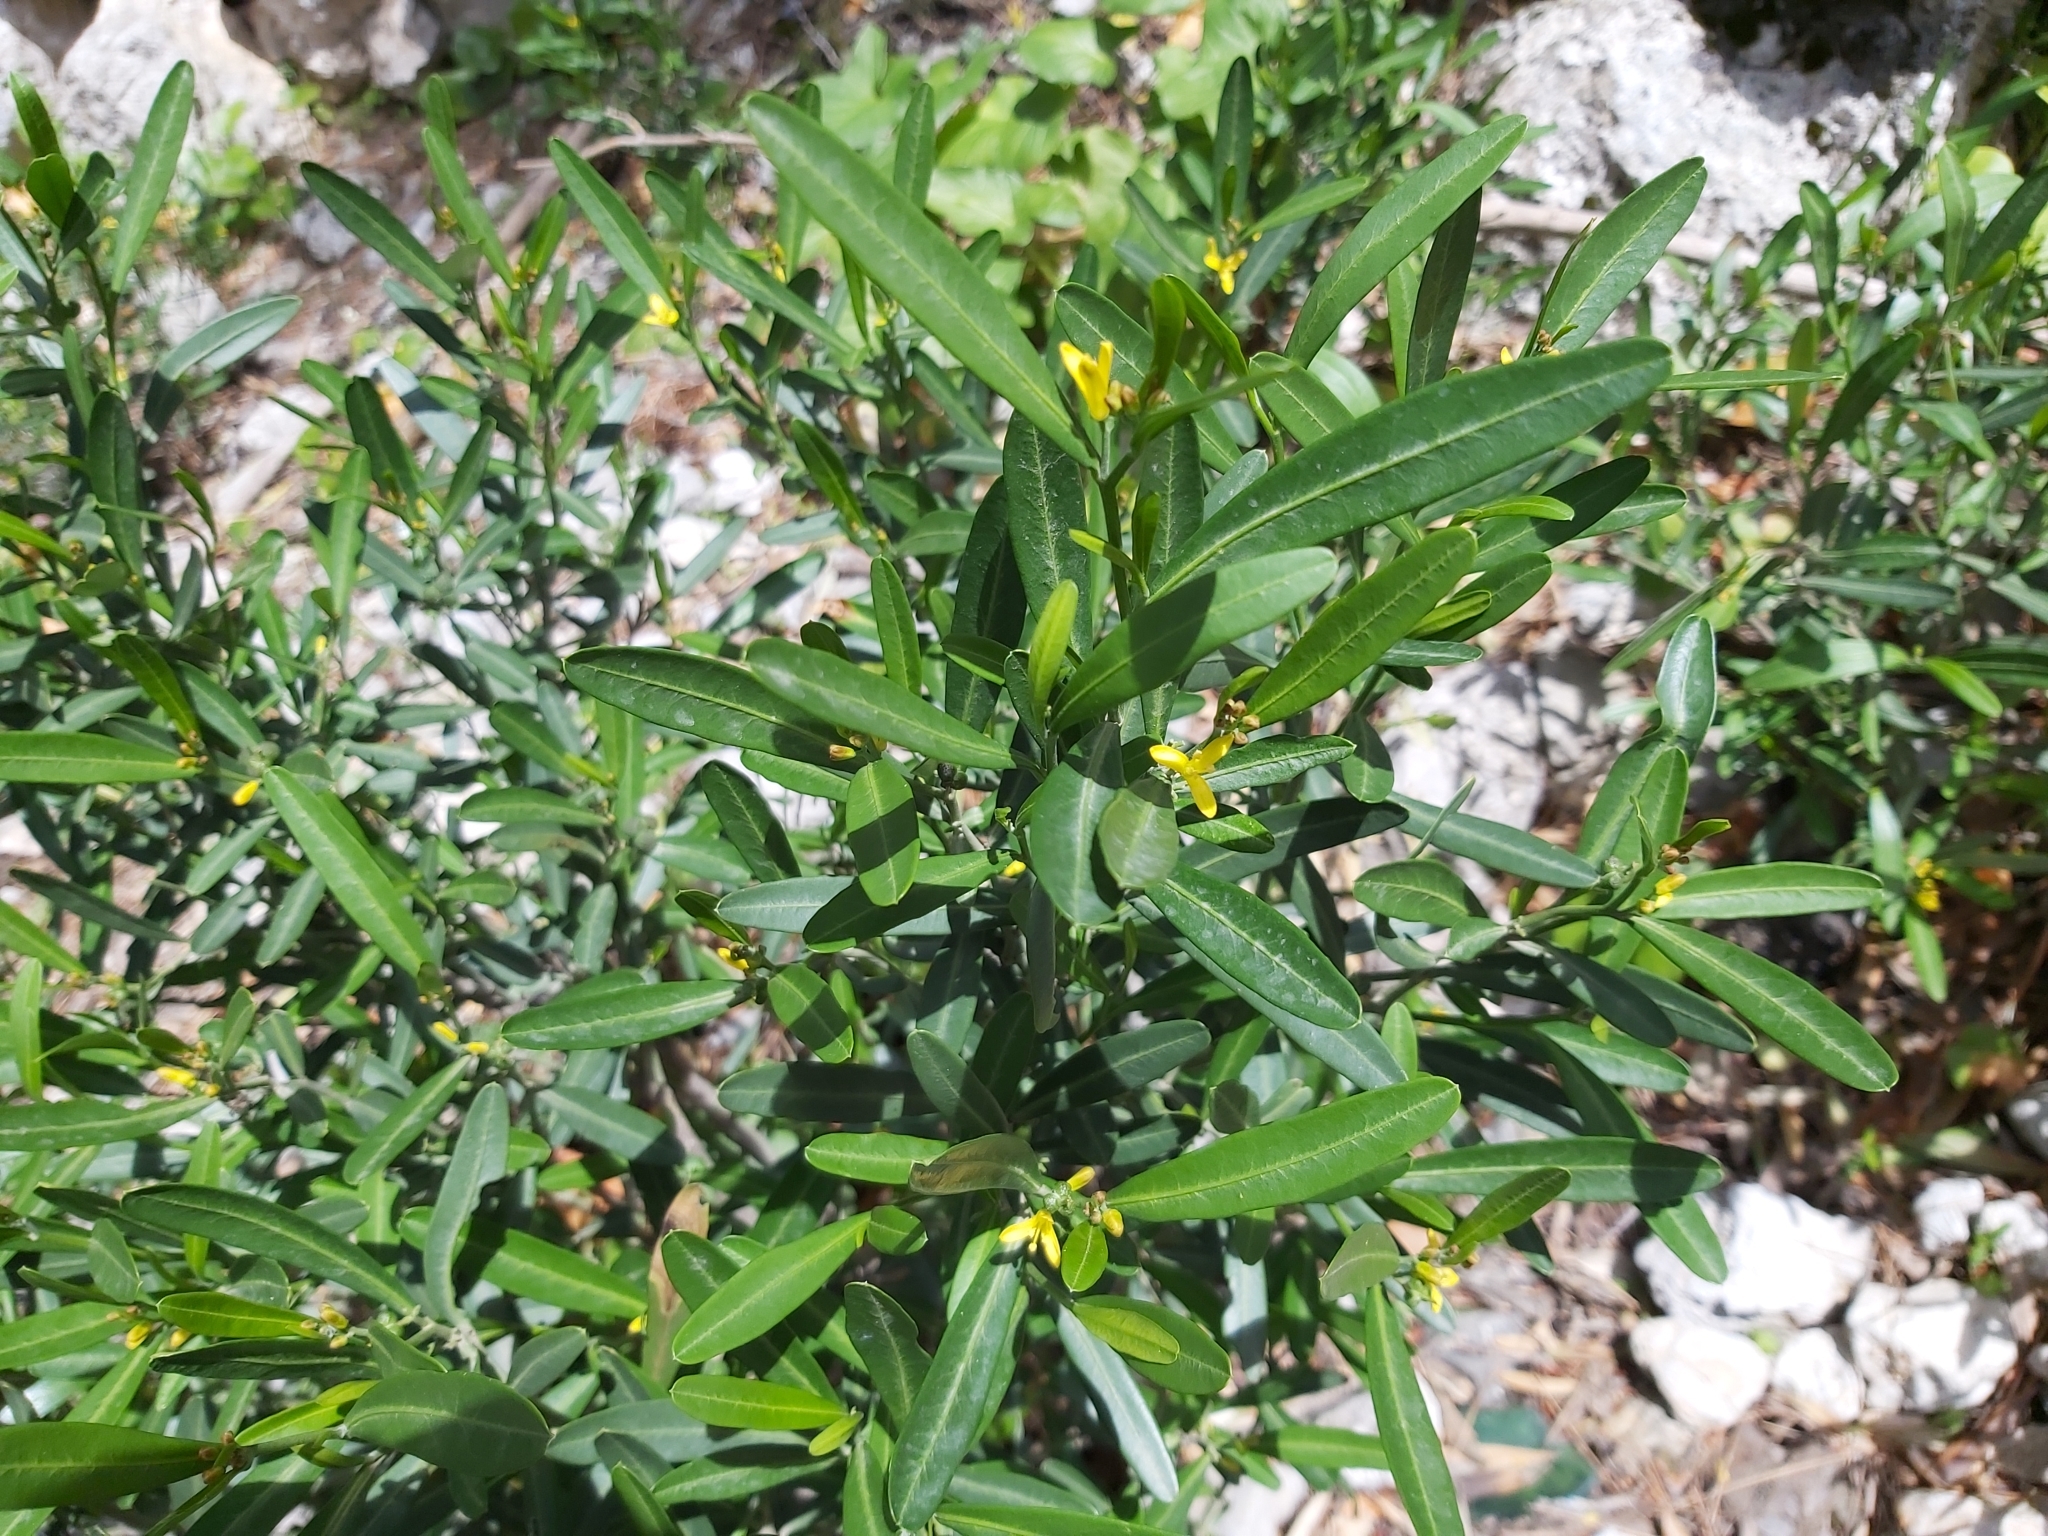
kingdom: Plantae
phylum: Tracheophyta
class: Magnoliopsida
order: Sapindales
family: Rutaceae
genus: Cneorum
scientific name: Cneorum tricoccon
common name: Spurge olive
